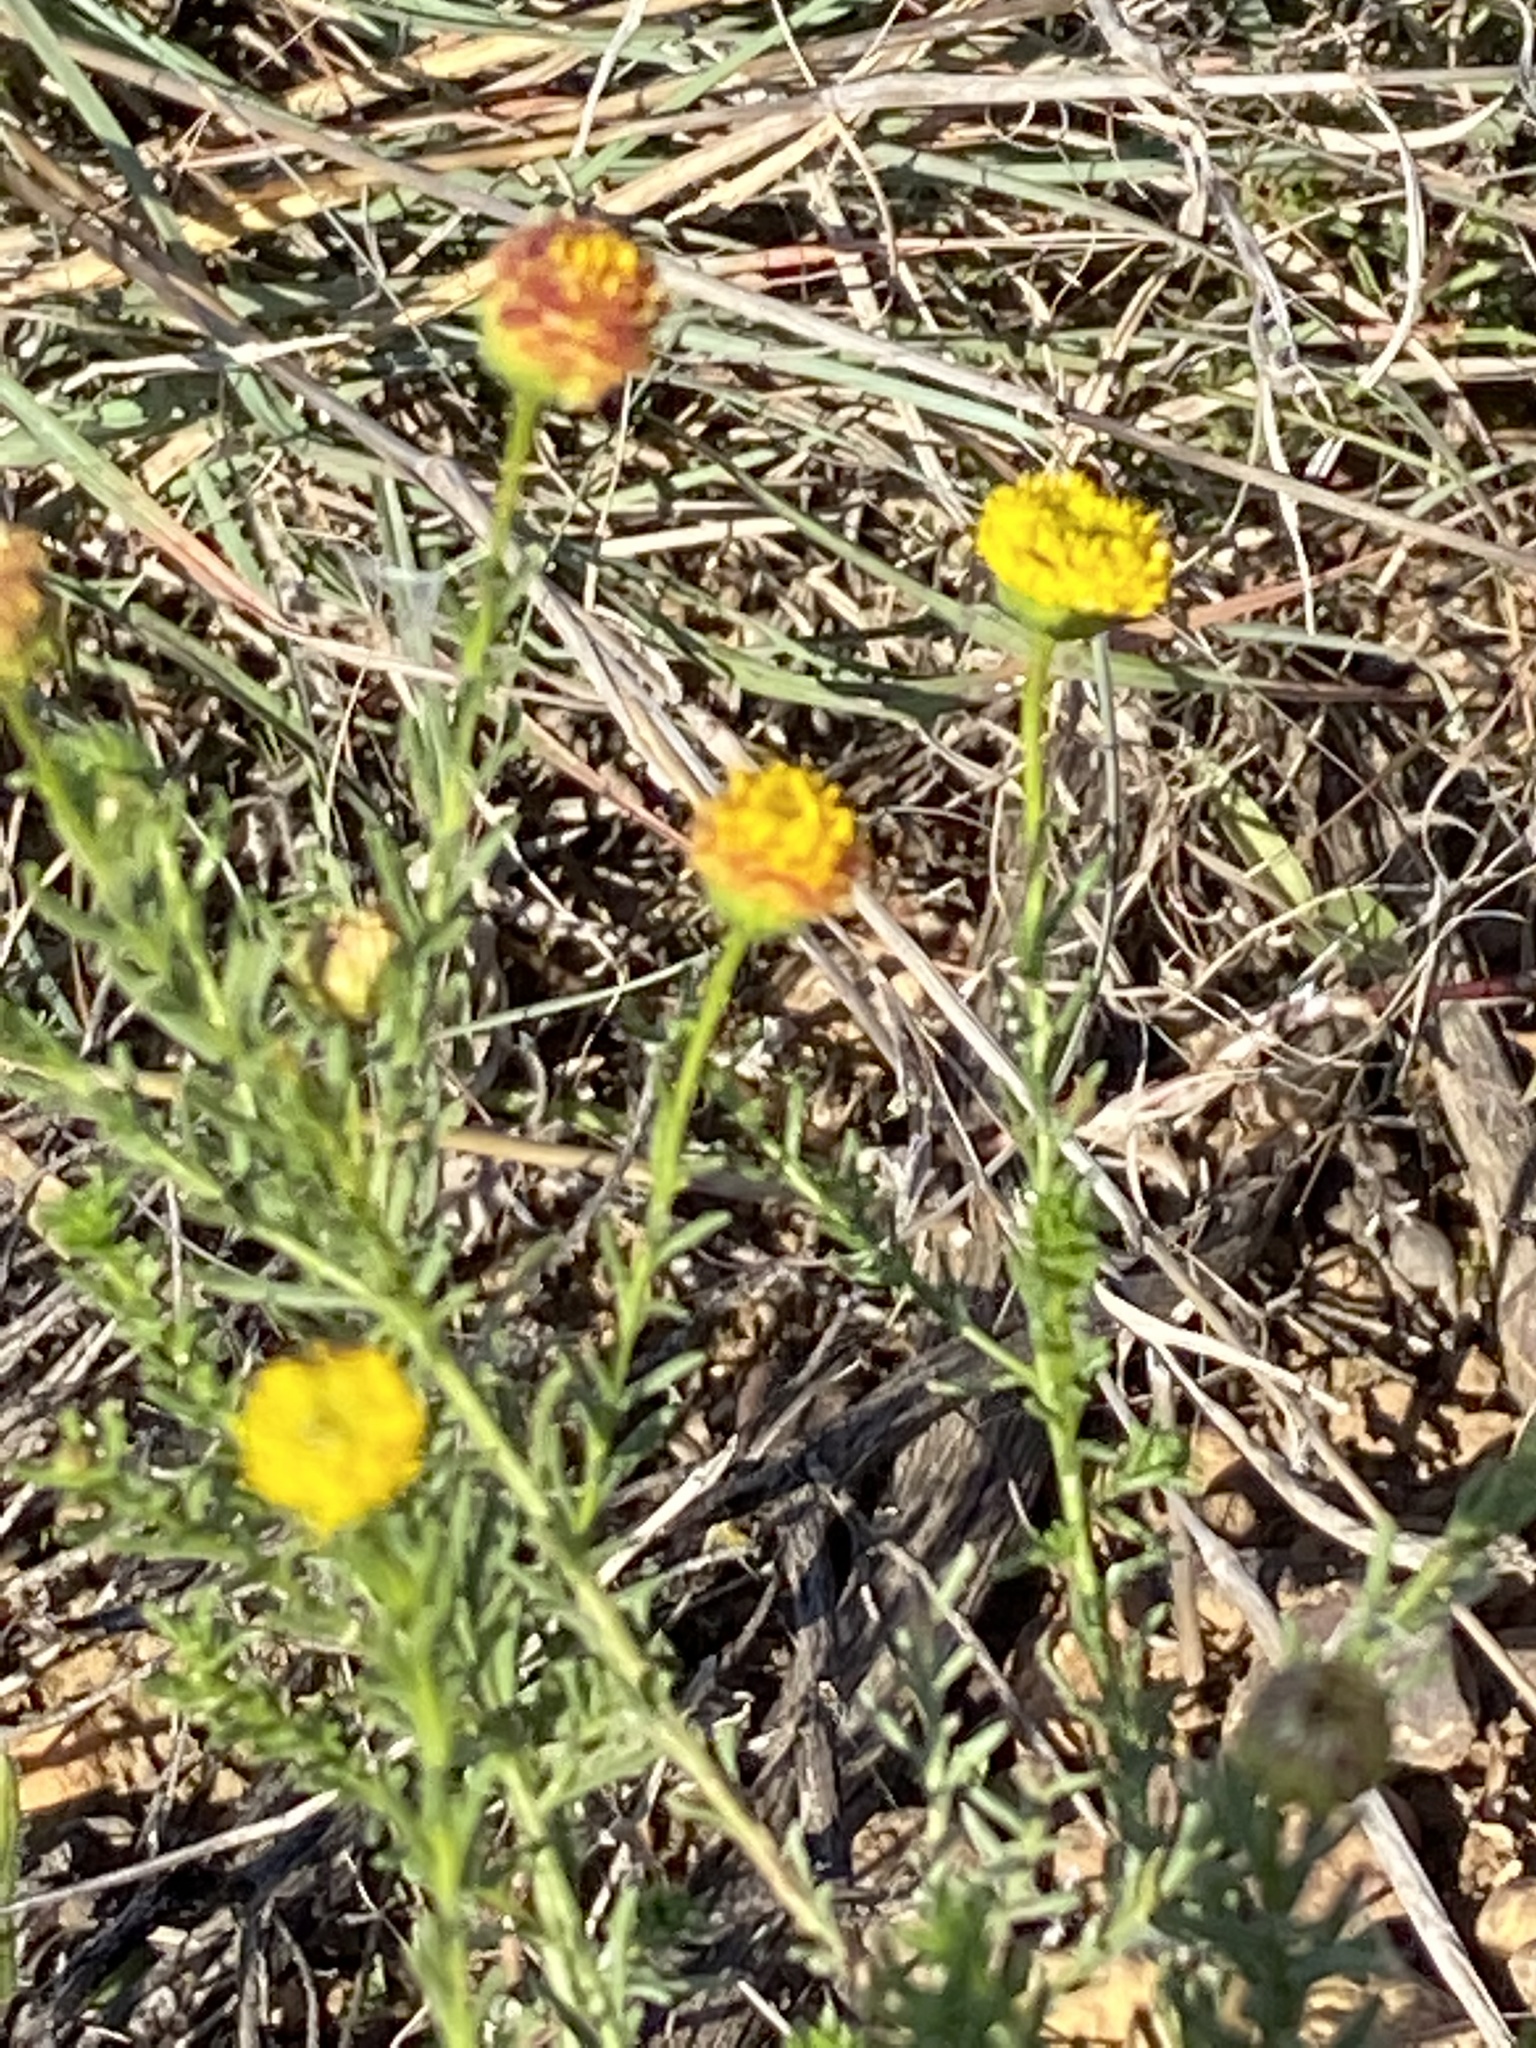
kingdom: Plantae
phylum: Tracheophyta
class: Magnoliopsida
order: Asterales
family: Asteraceae
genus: Chrysocoma
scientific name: Chrysocoma ciliata
